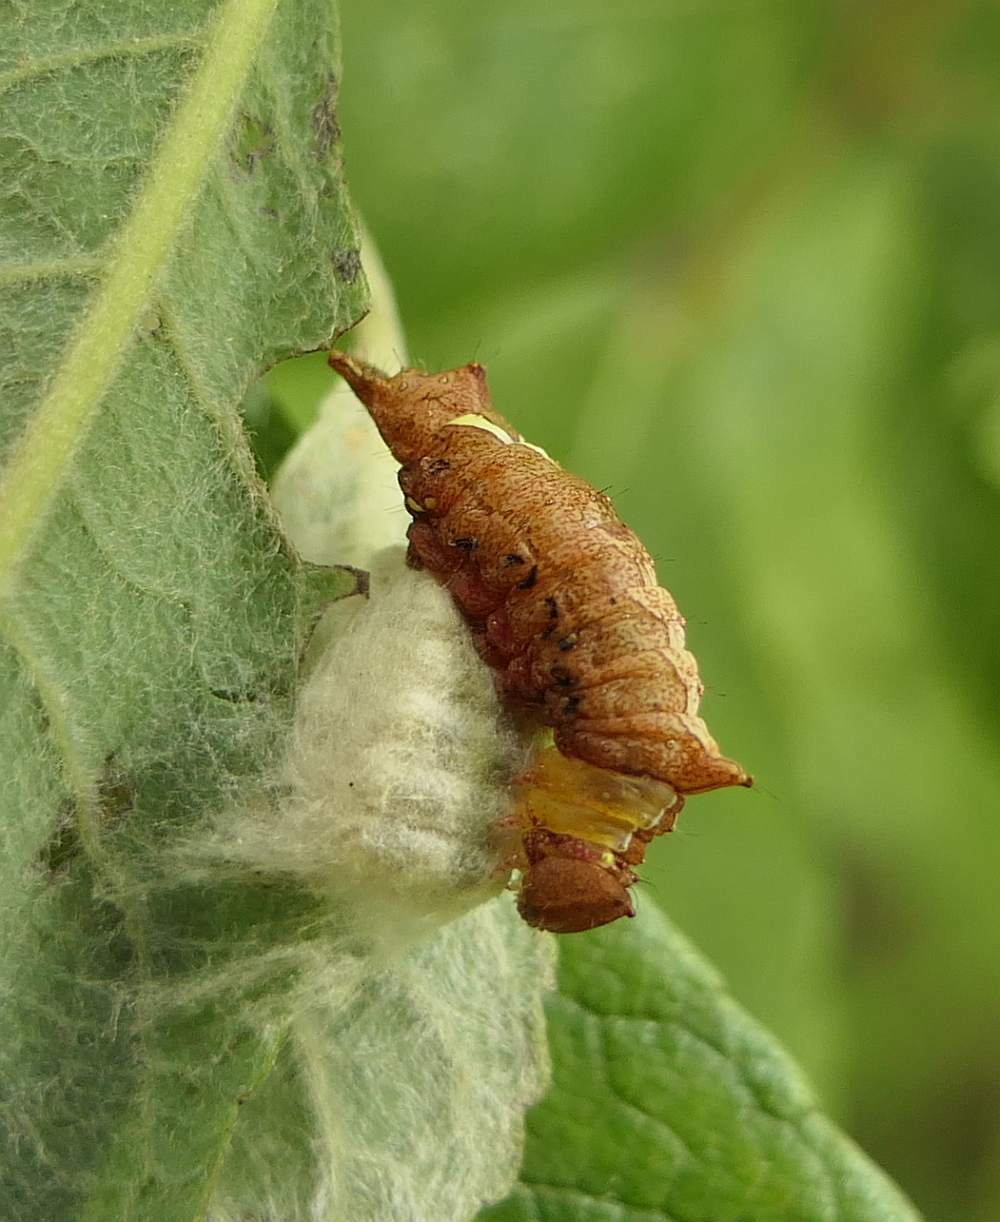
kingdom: Animalia
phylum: Arthropoda
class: Insecta
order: Lepidoptera
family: Notodontidae
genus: Schizura
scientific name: Schizura
